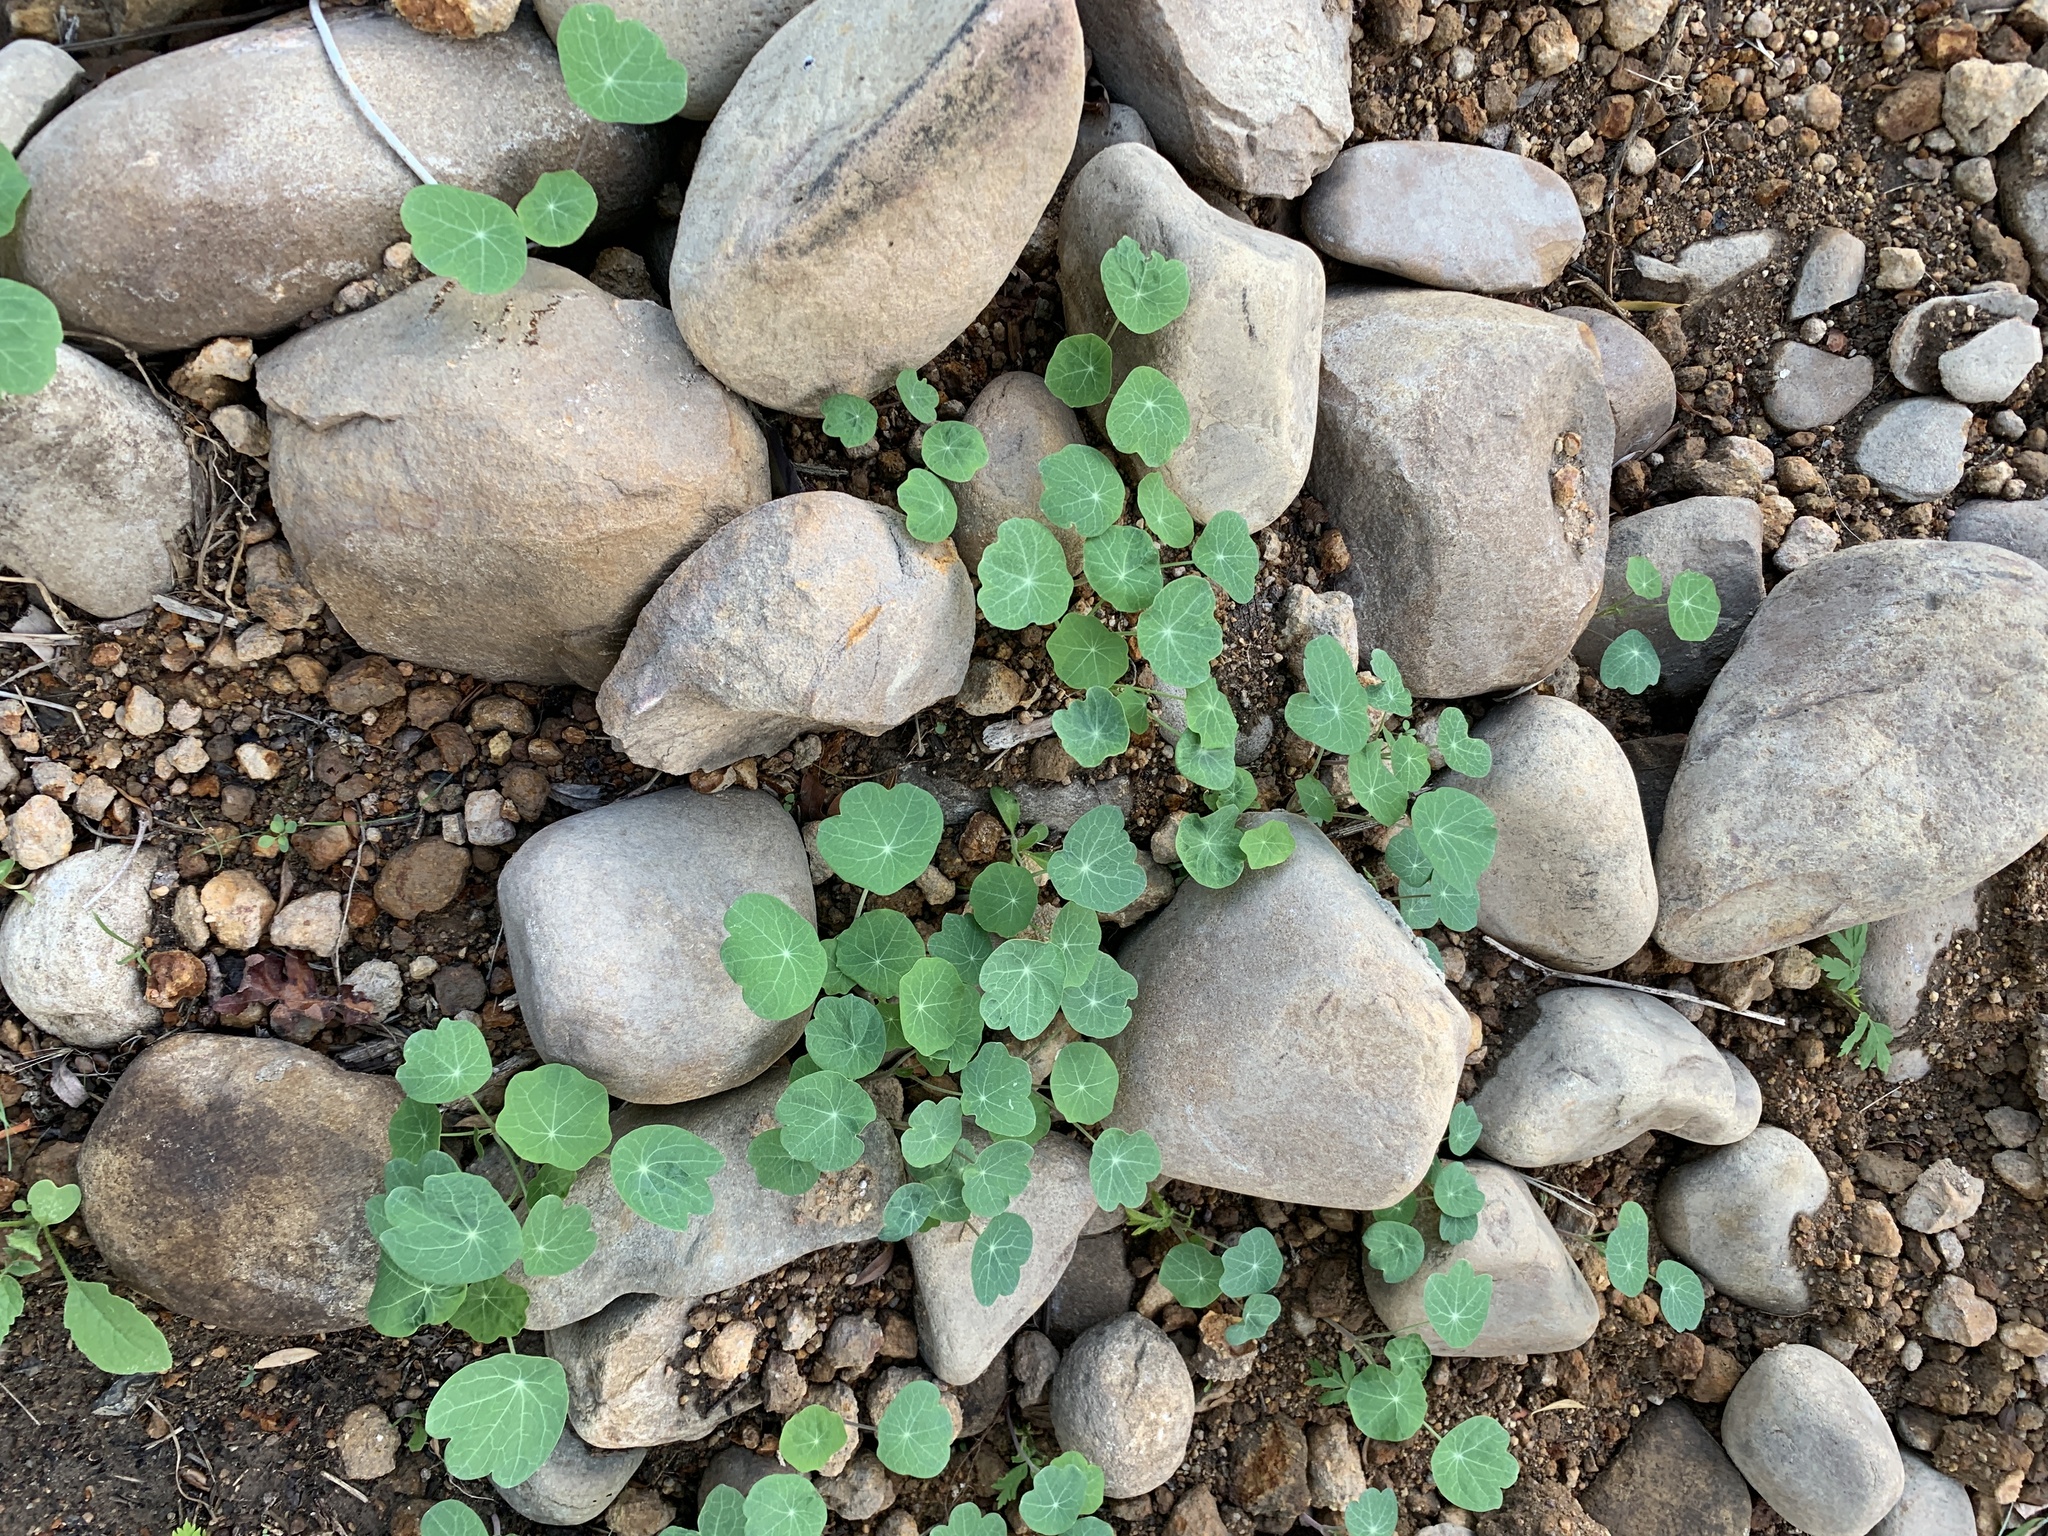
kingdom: Plantae
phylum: Tracheophyta
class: Magnoliopsida
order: Brassicales
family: Tropaeolaceae
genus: Tropaeolum
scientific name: Tropaeolum majus
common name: Nasturtium
